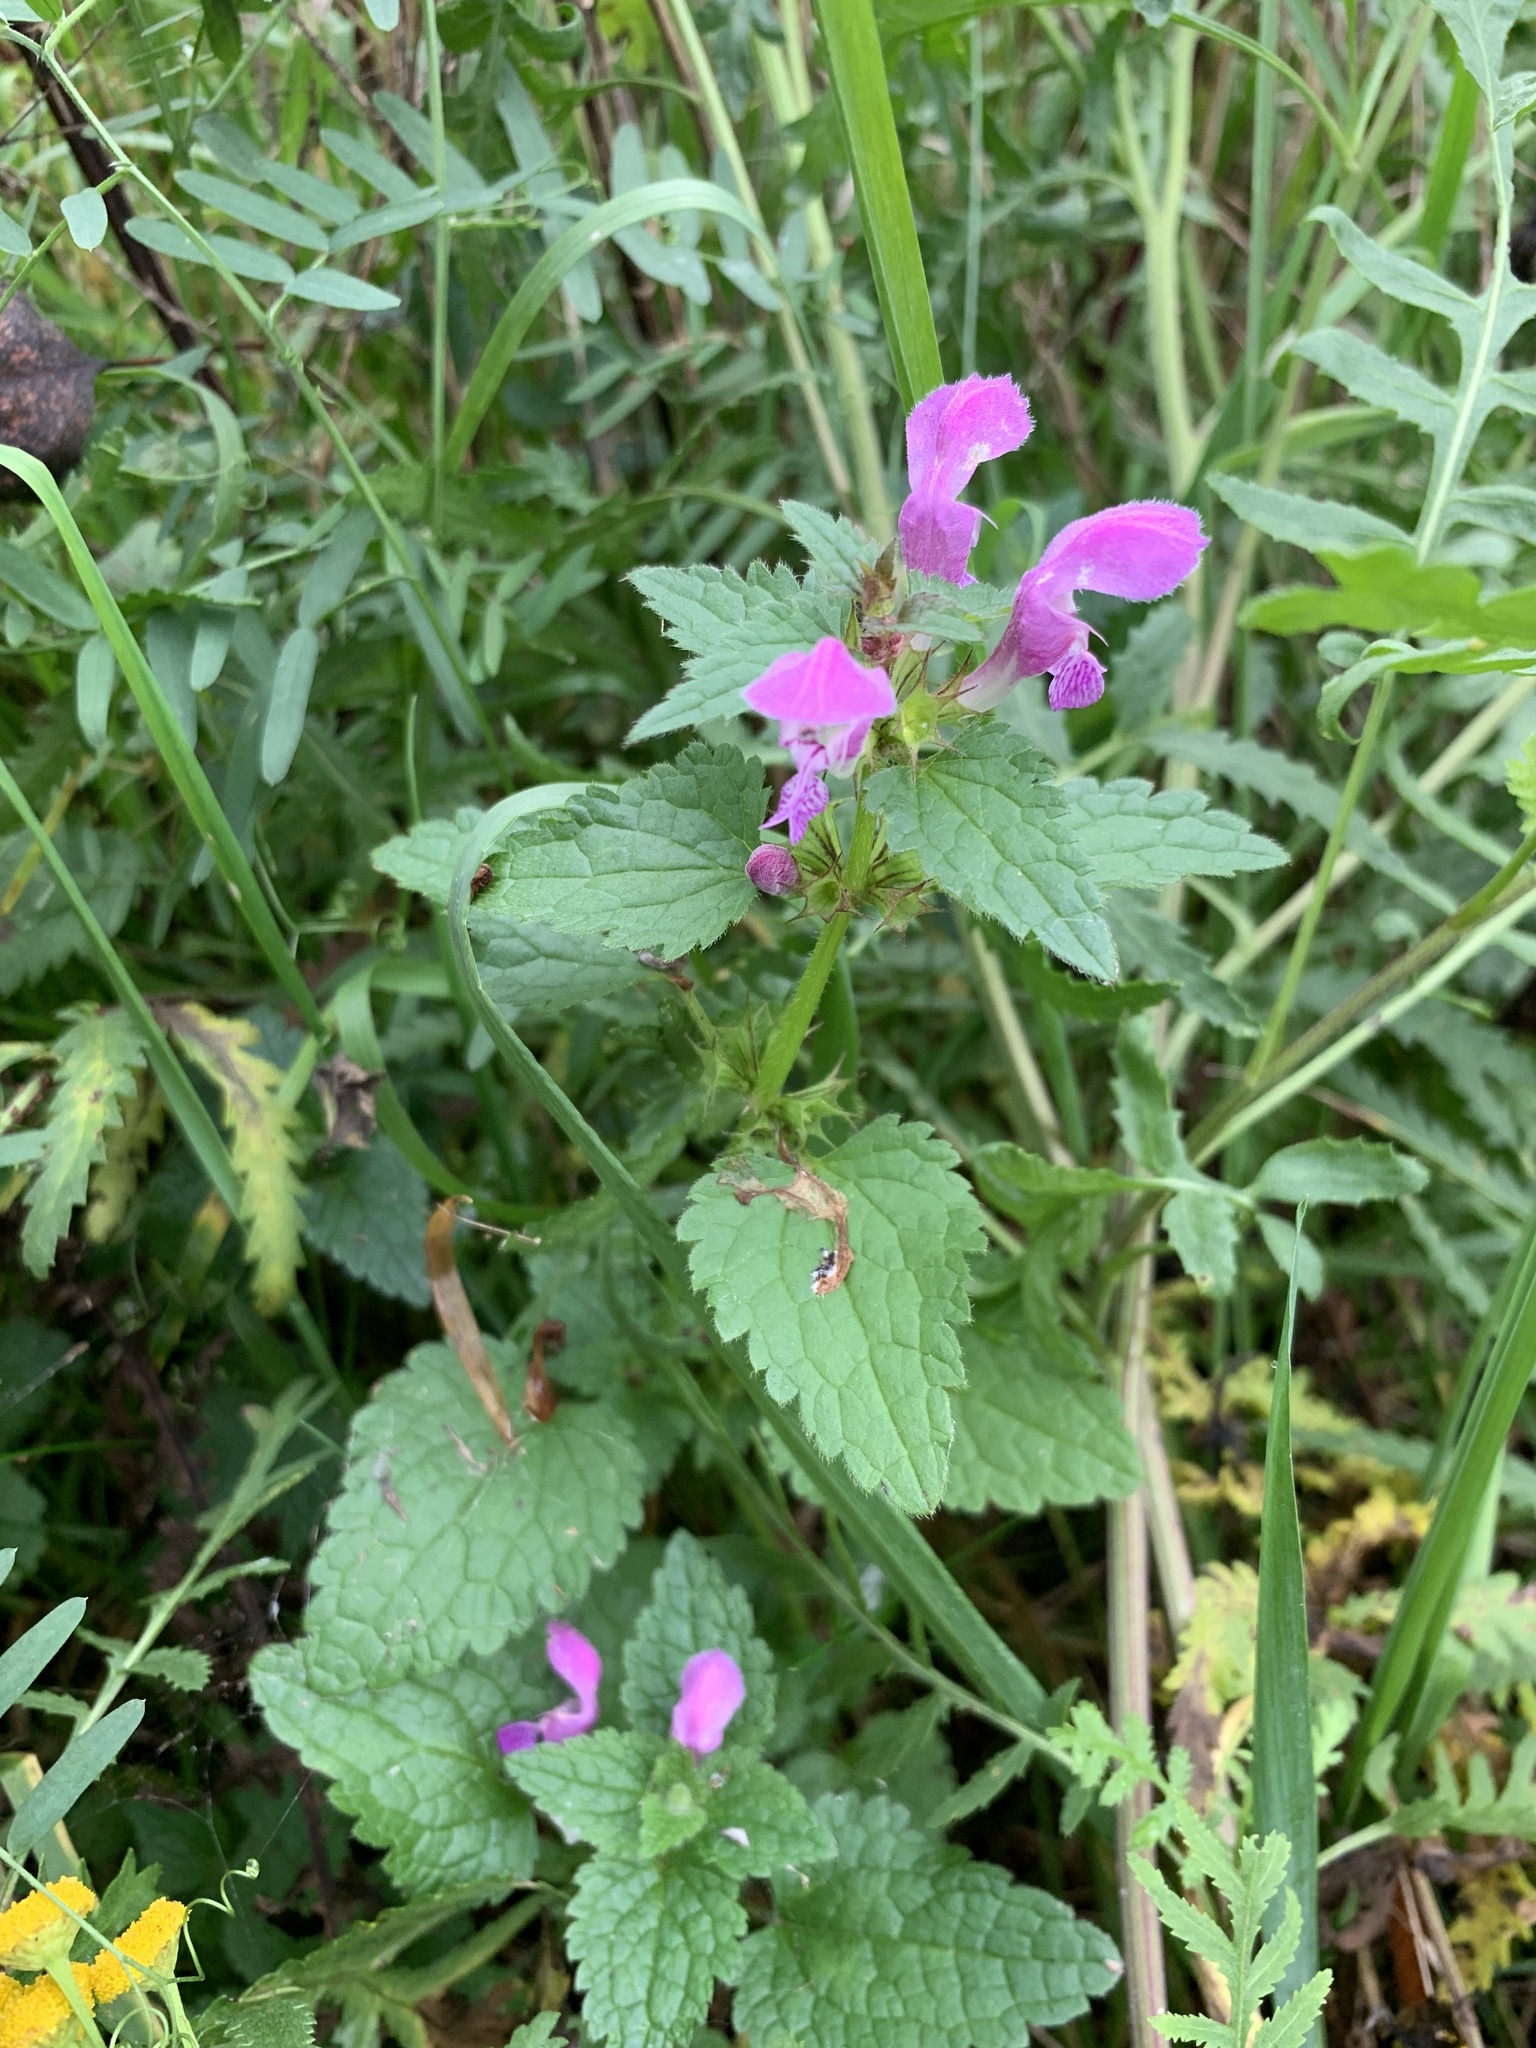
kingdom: Plantae
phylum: Tracheophyta
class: Magnoliopsida
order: Lamiales
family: Lamiaceae
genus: Lamium
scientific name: Lamium maculatum
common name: Spotted dead-nettle
